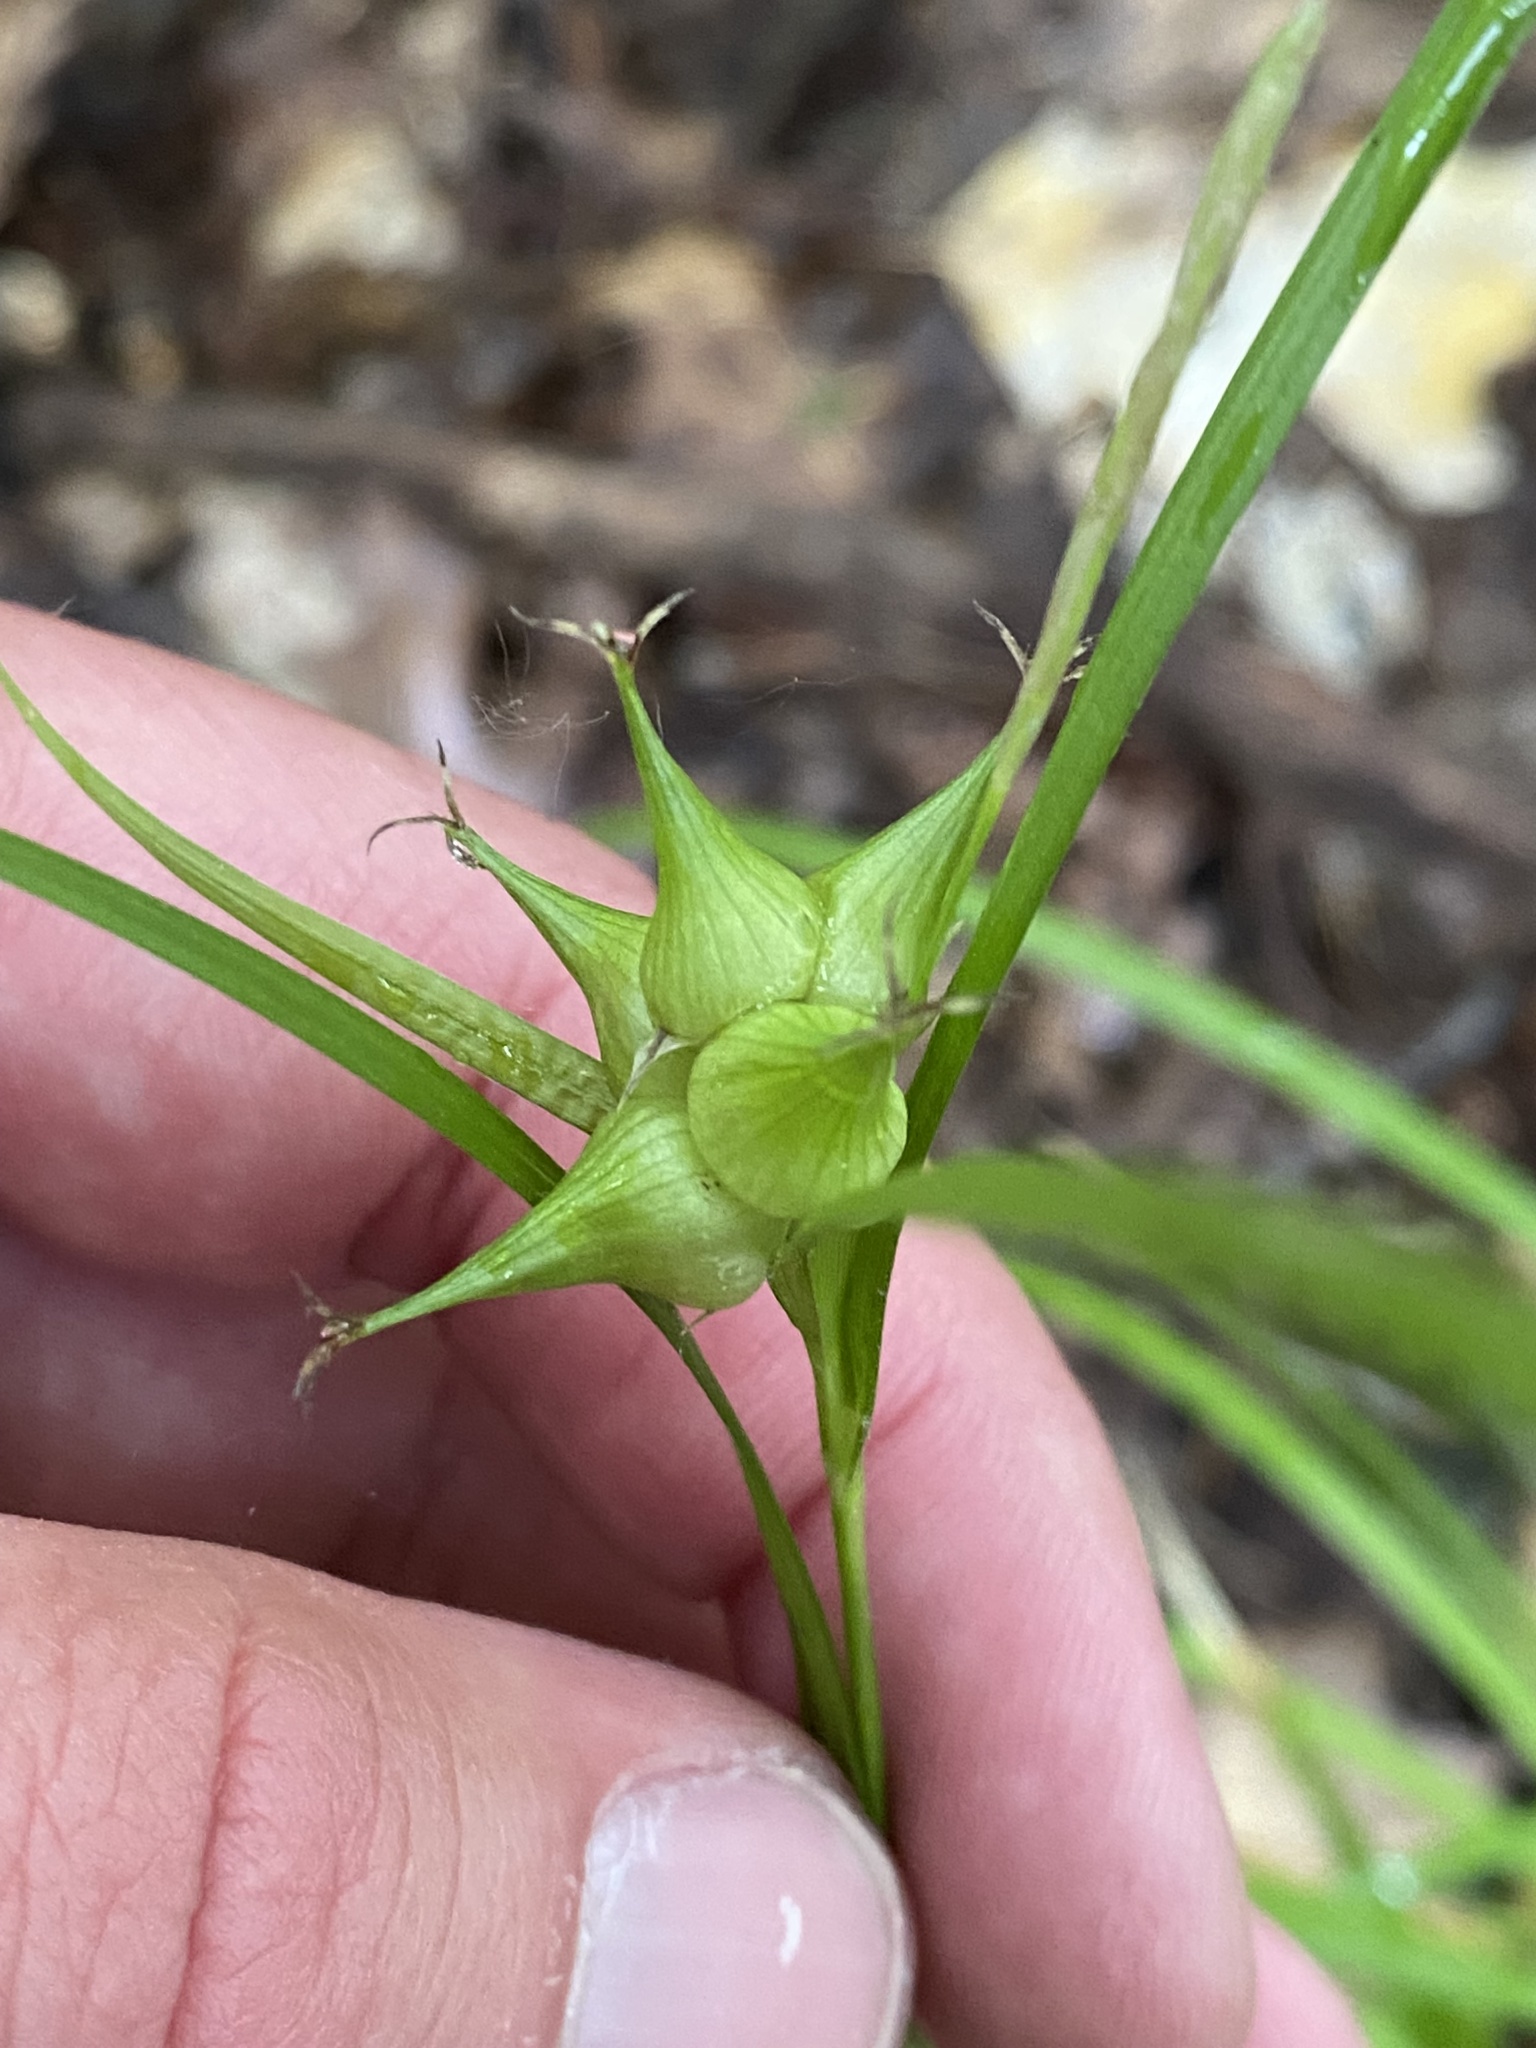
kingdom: Plantae
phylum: Tracheophyta
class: Liliopsida
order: Poales
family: Cyperaceae
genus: Carex
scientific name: Carex intumescens
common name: Greater bladder sedge
